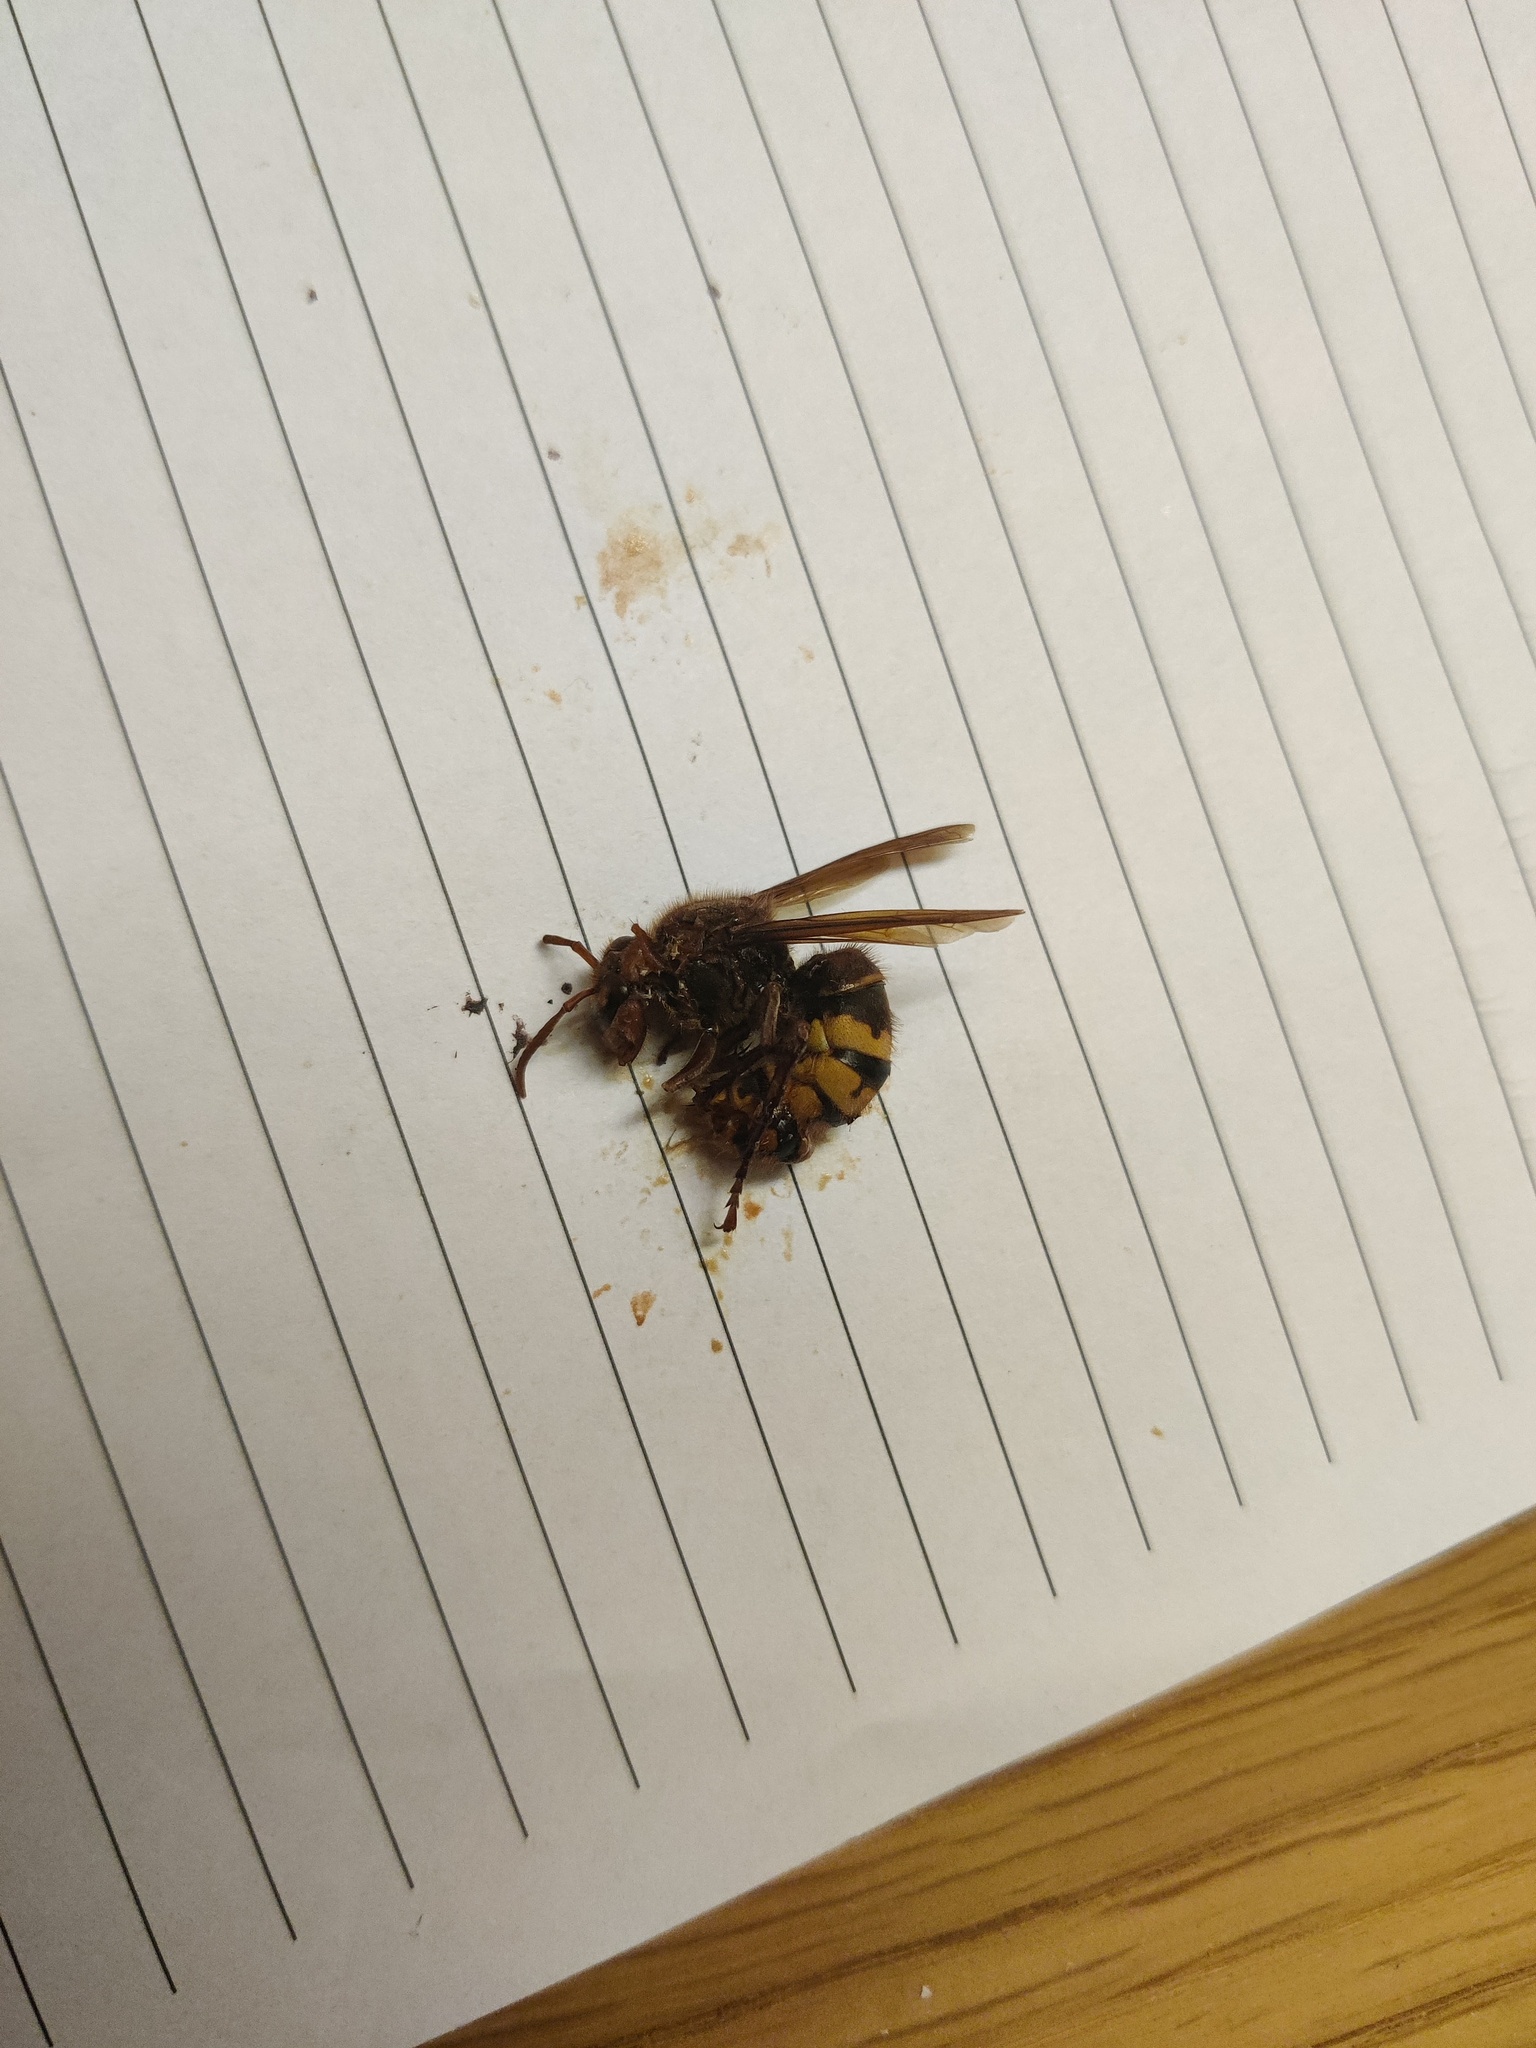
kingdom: Animalia
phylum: Arthropoda
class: Insecta
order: Hymenoptera
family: Vespidae
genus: Vespa
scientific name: Vespa crabro
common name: Hornet
